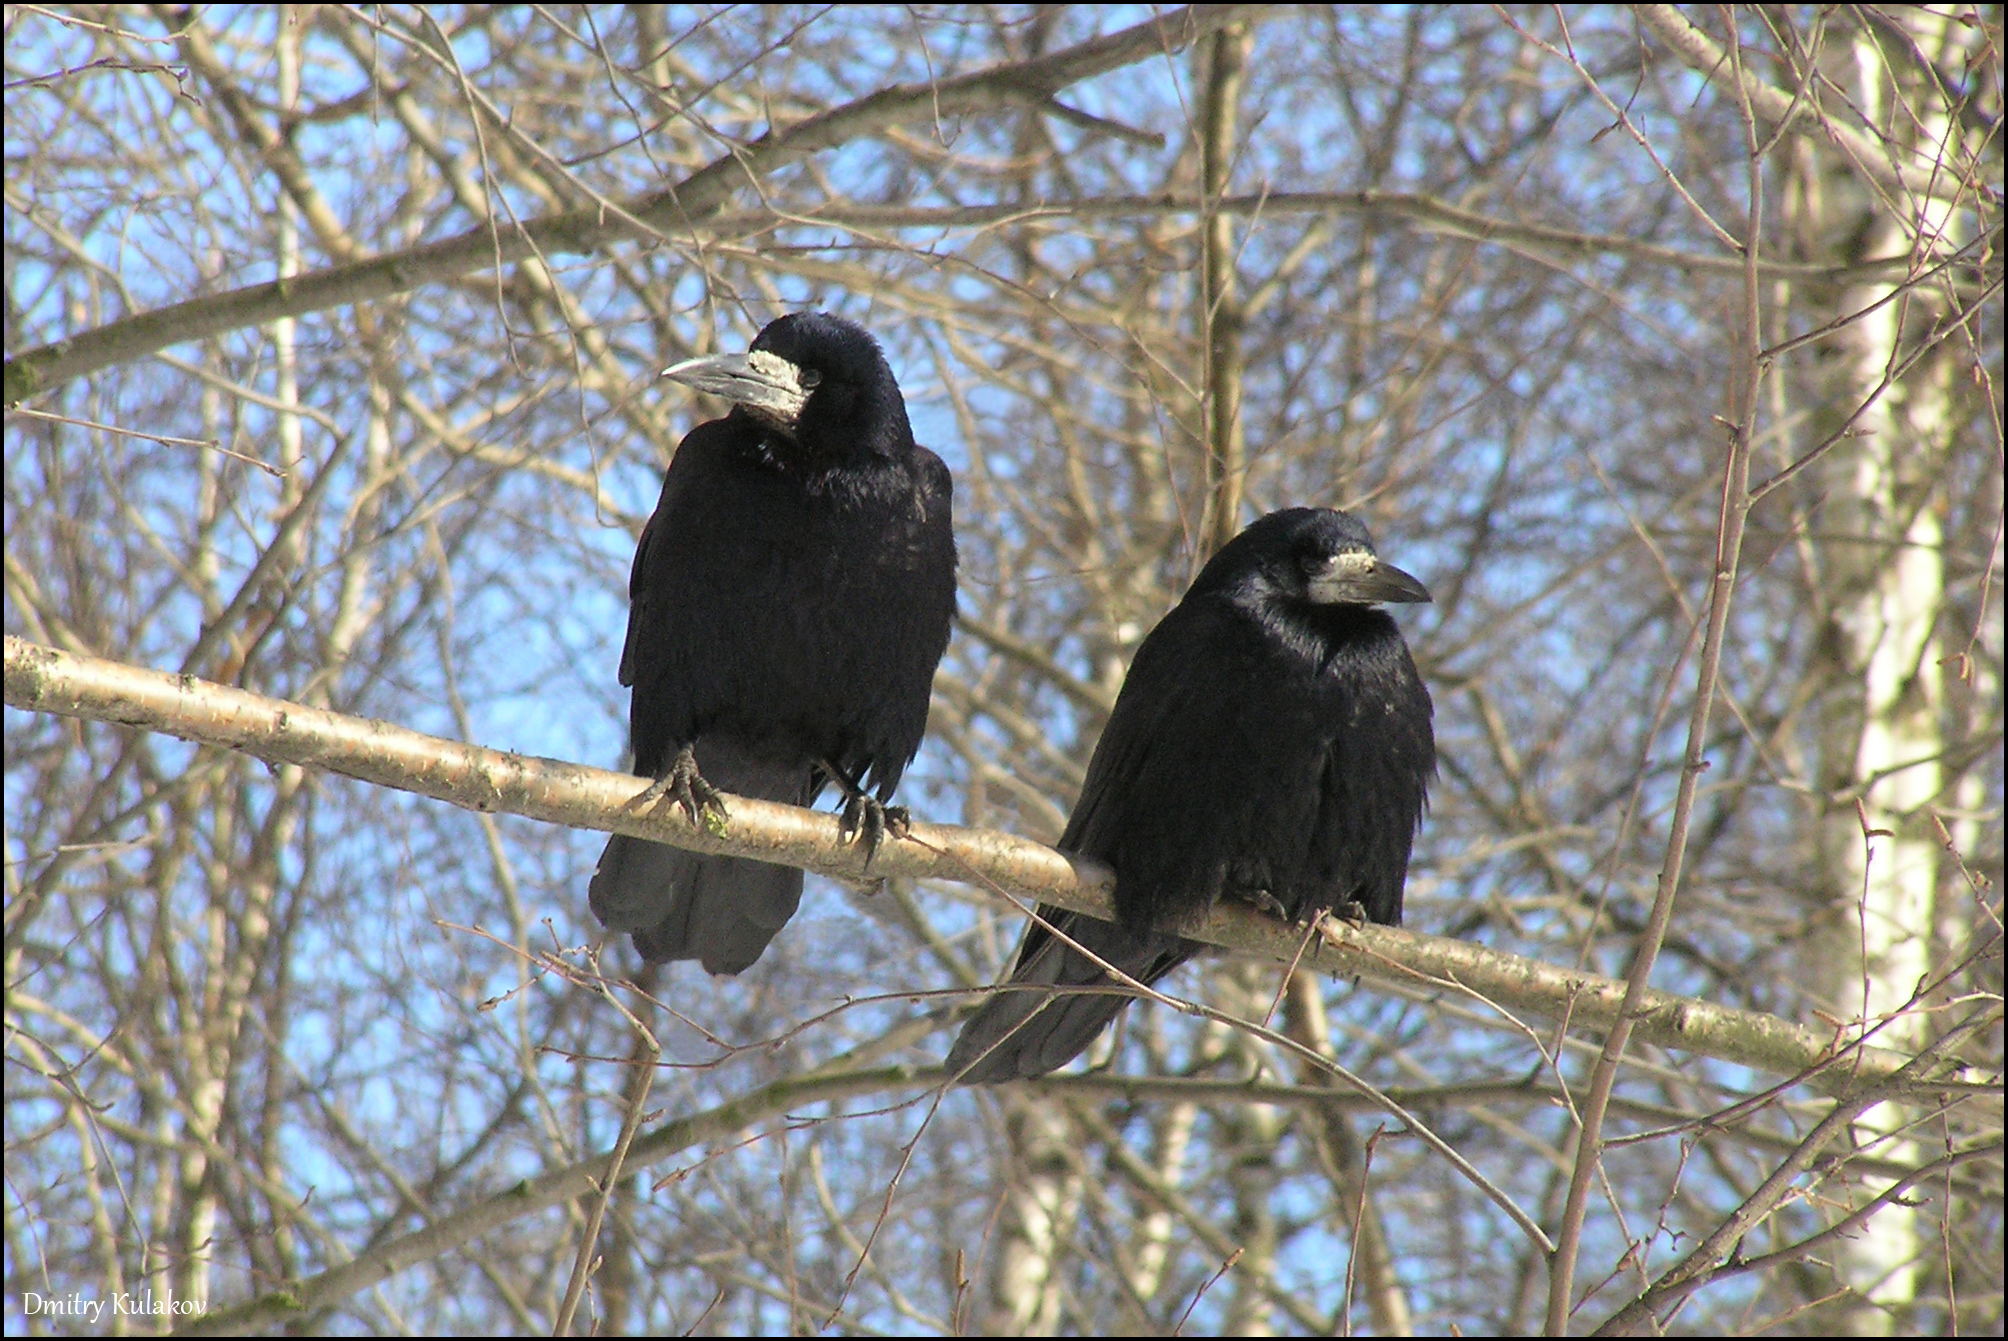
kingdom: Animalia
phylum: Chordata
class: Aves
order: Passeriformes
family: Corvidae
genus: Corvus
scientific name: Corvus frugilegus
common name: Rook
